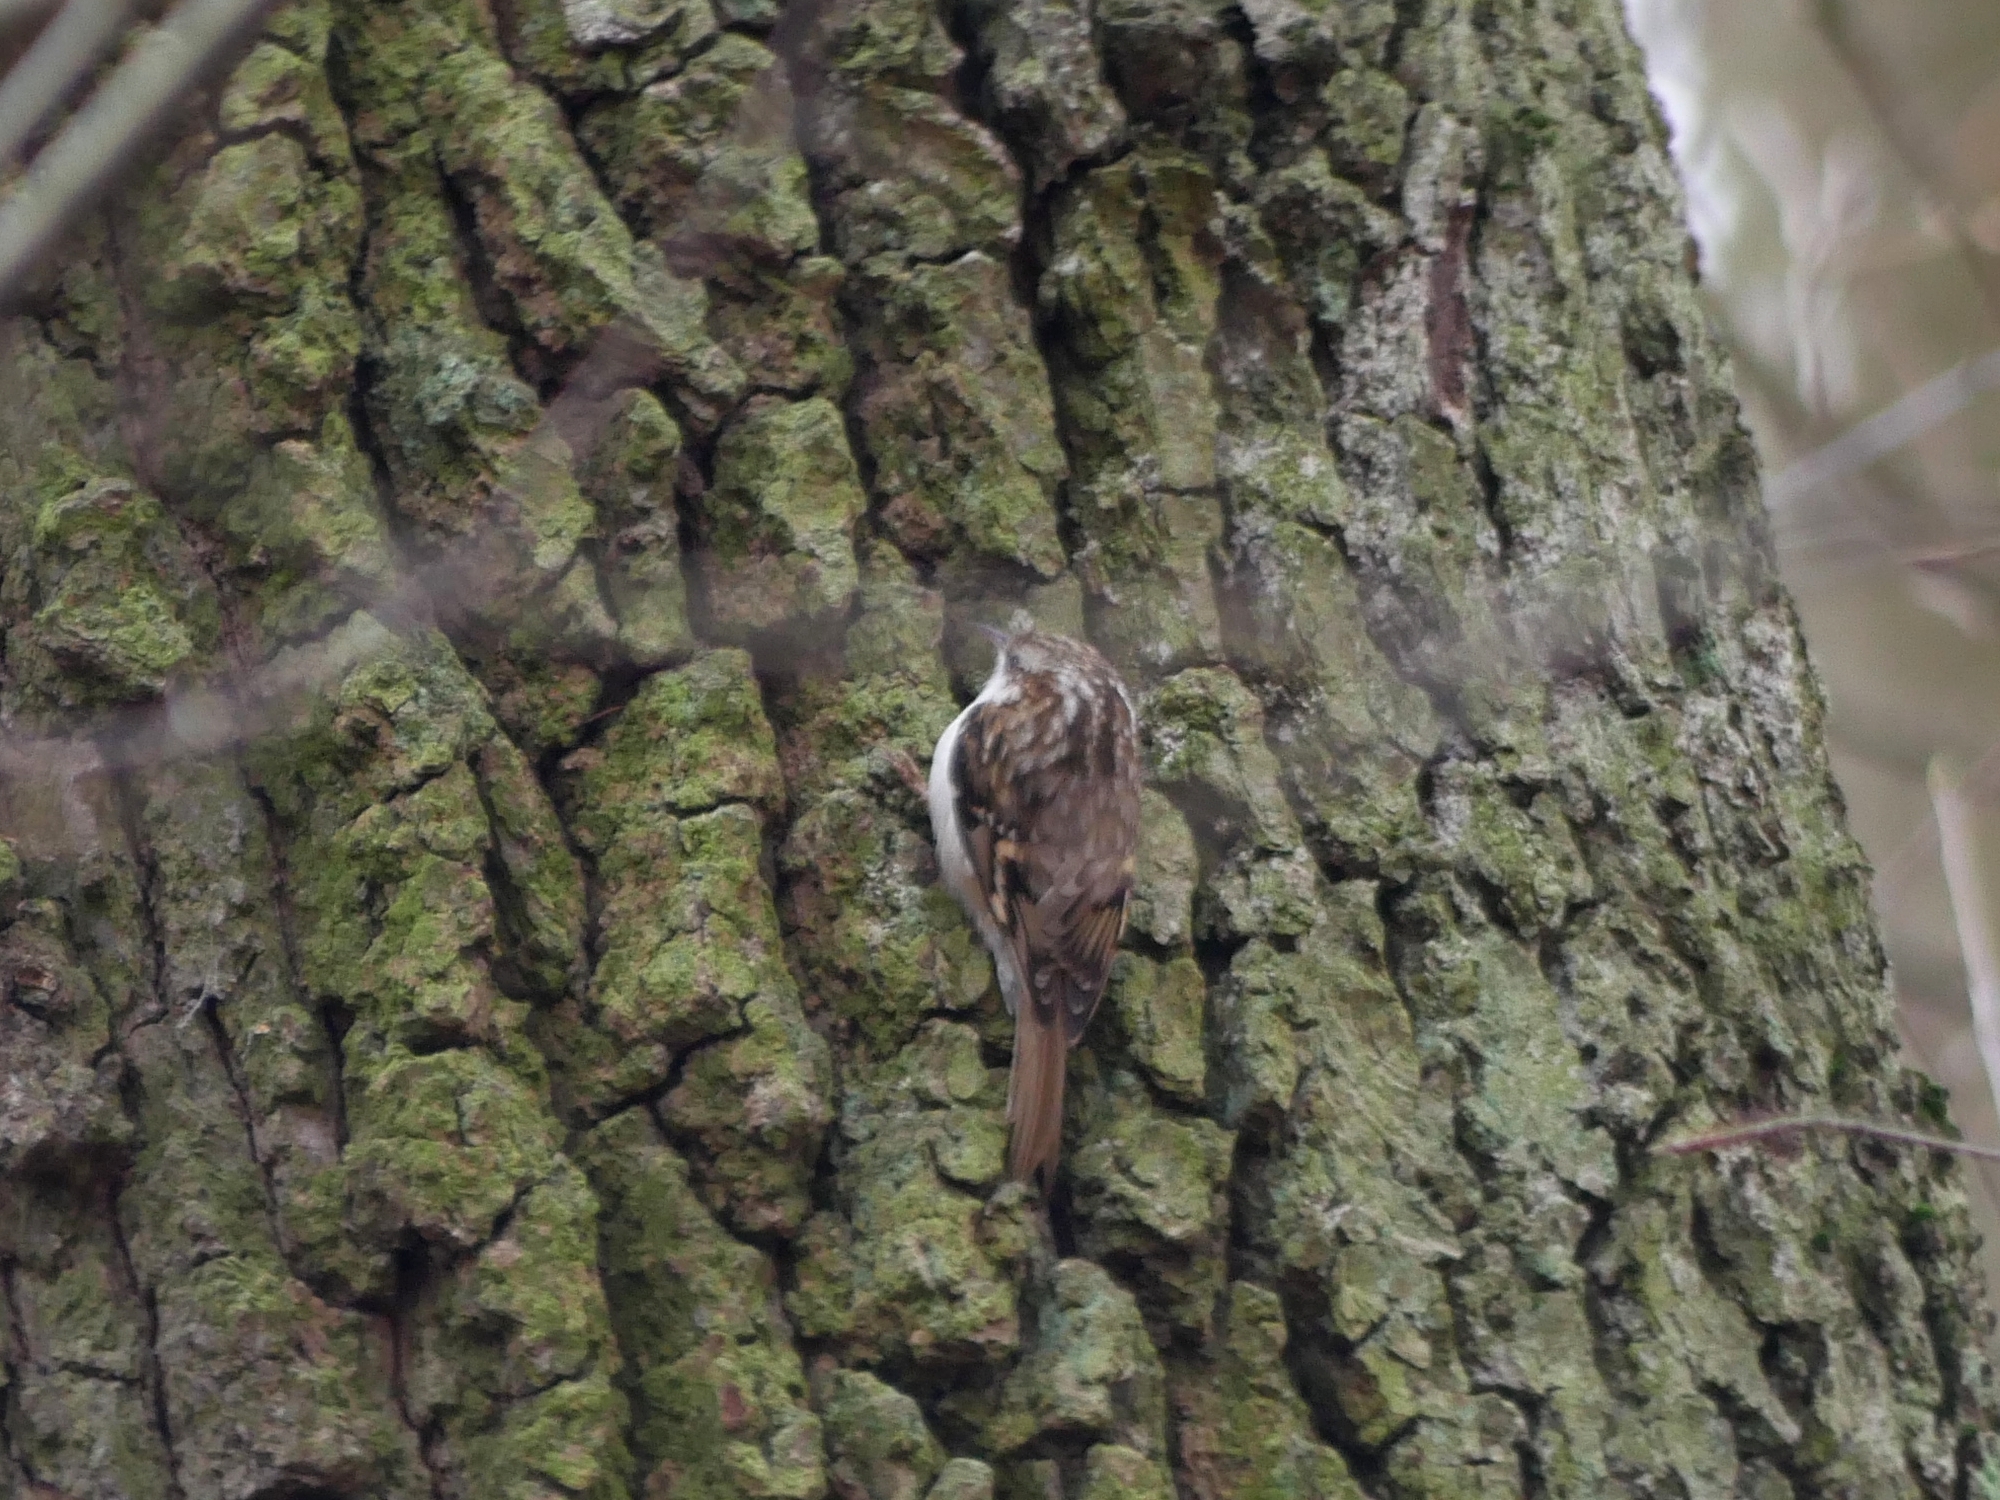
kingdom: Animalia
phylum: Chordata
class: Aves
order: Passeriformes
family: Certhiidae
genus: Certhia
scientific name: Certhia brachydactyla
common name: Short-toed treecreeper
